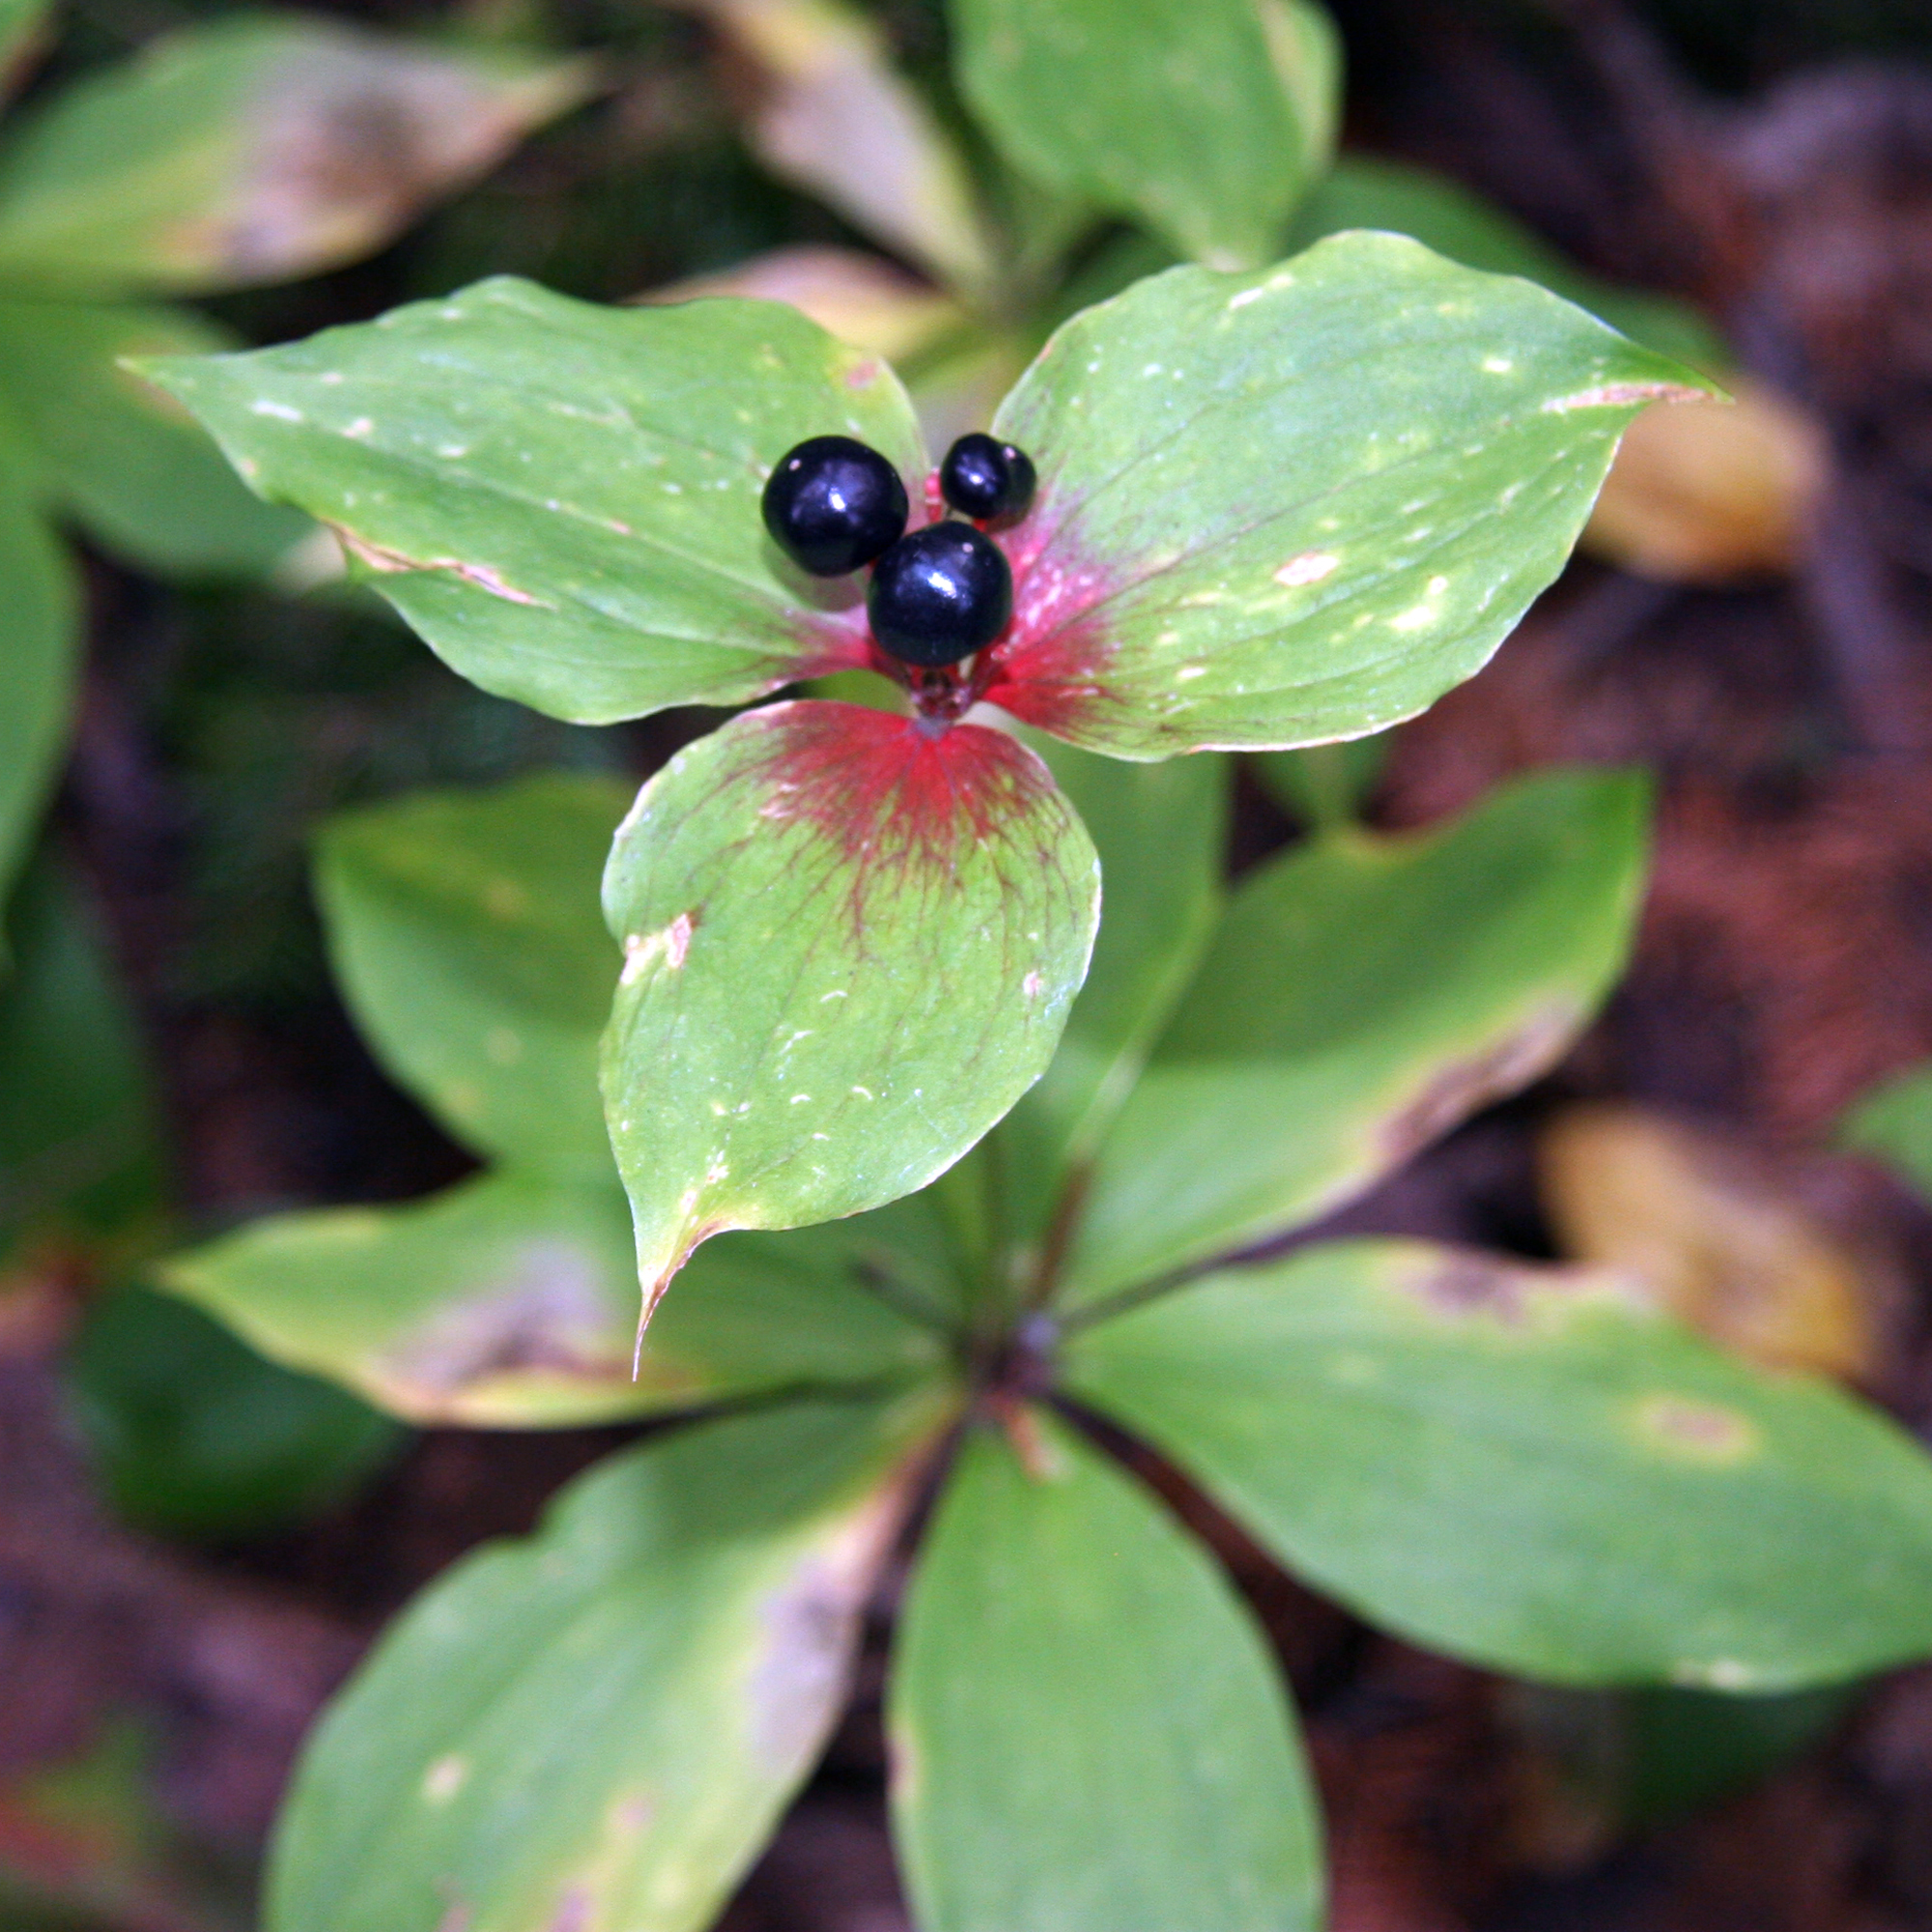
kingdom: Plantae
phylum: Tracheophyta
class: Liliopsida
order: Liliales
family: Liliaceae
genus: Medeola
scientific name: Medeola virginiana
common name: Indian cucumber-root
